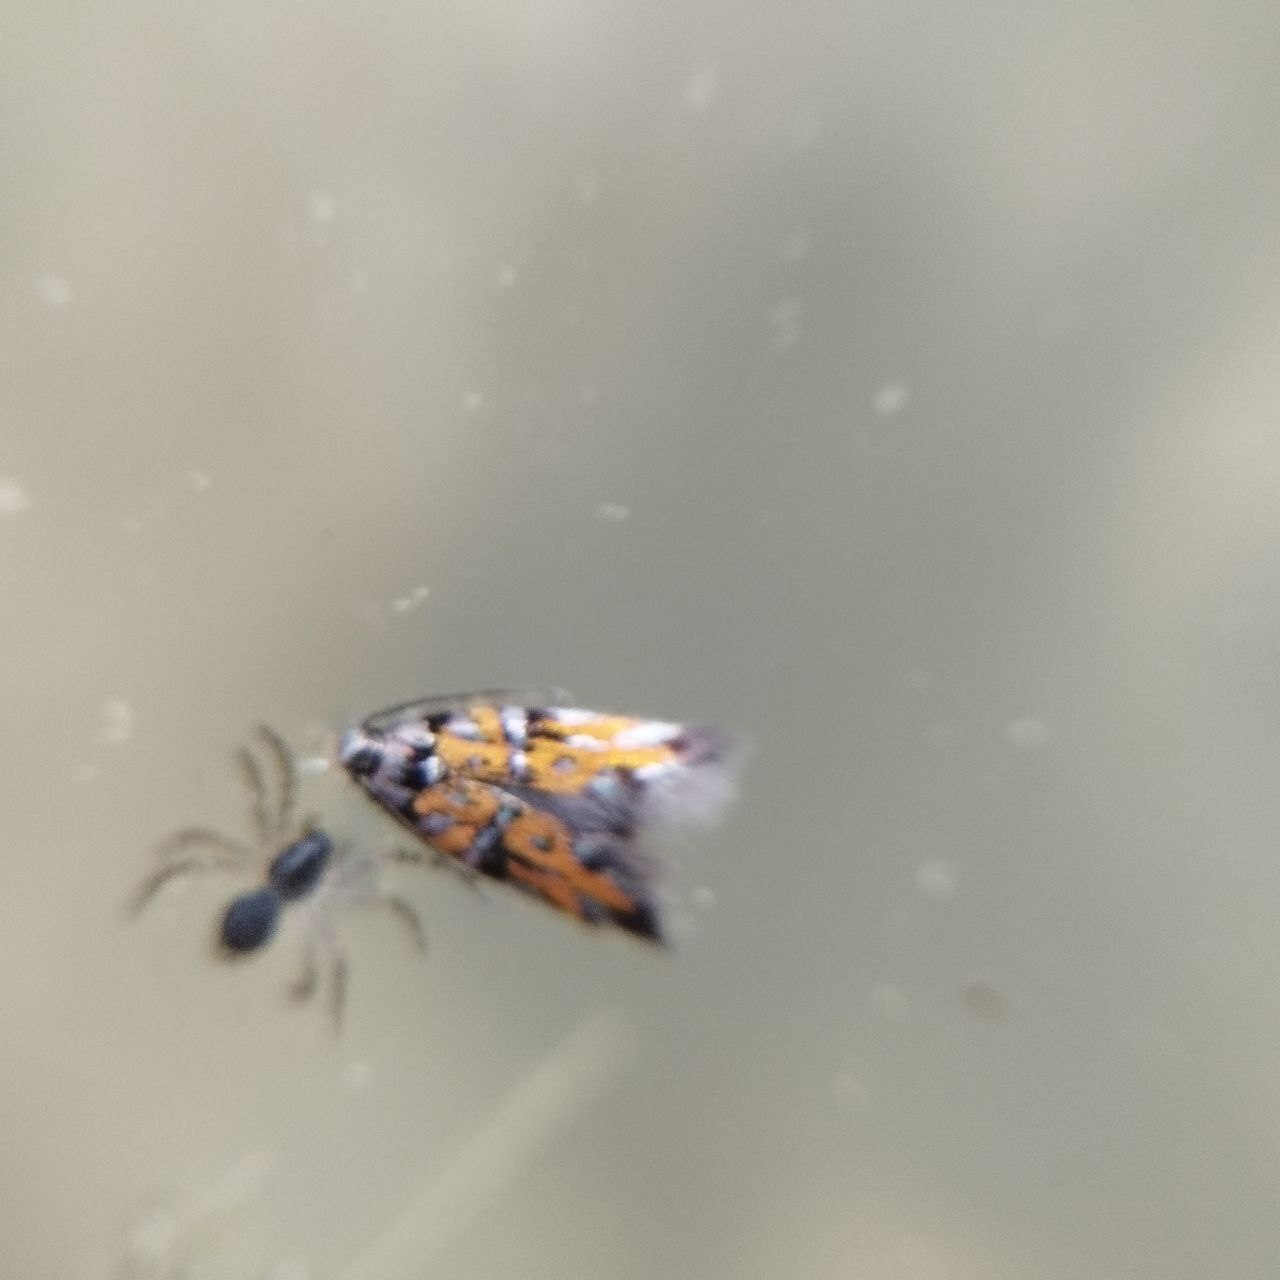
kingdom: Animalia
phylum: Arthropoda
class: Insecta
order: Lepidoptera
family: Gelechiidae
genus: Chrysoesthia
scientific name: Chrysoesthia drurella
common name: Flame neb
